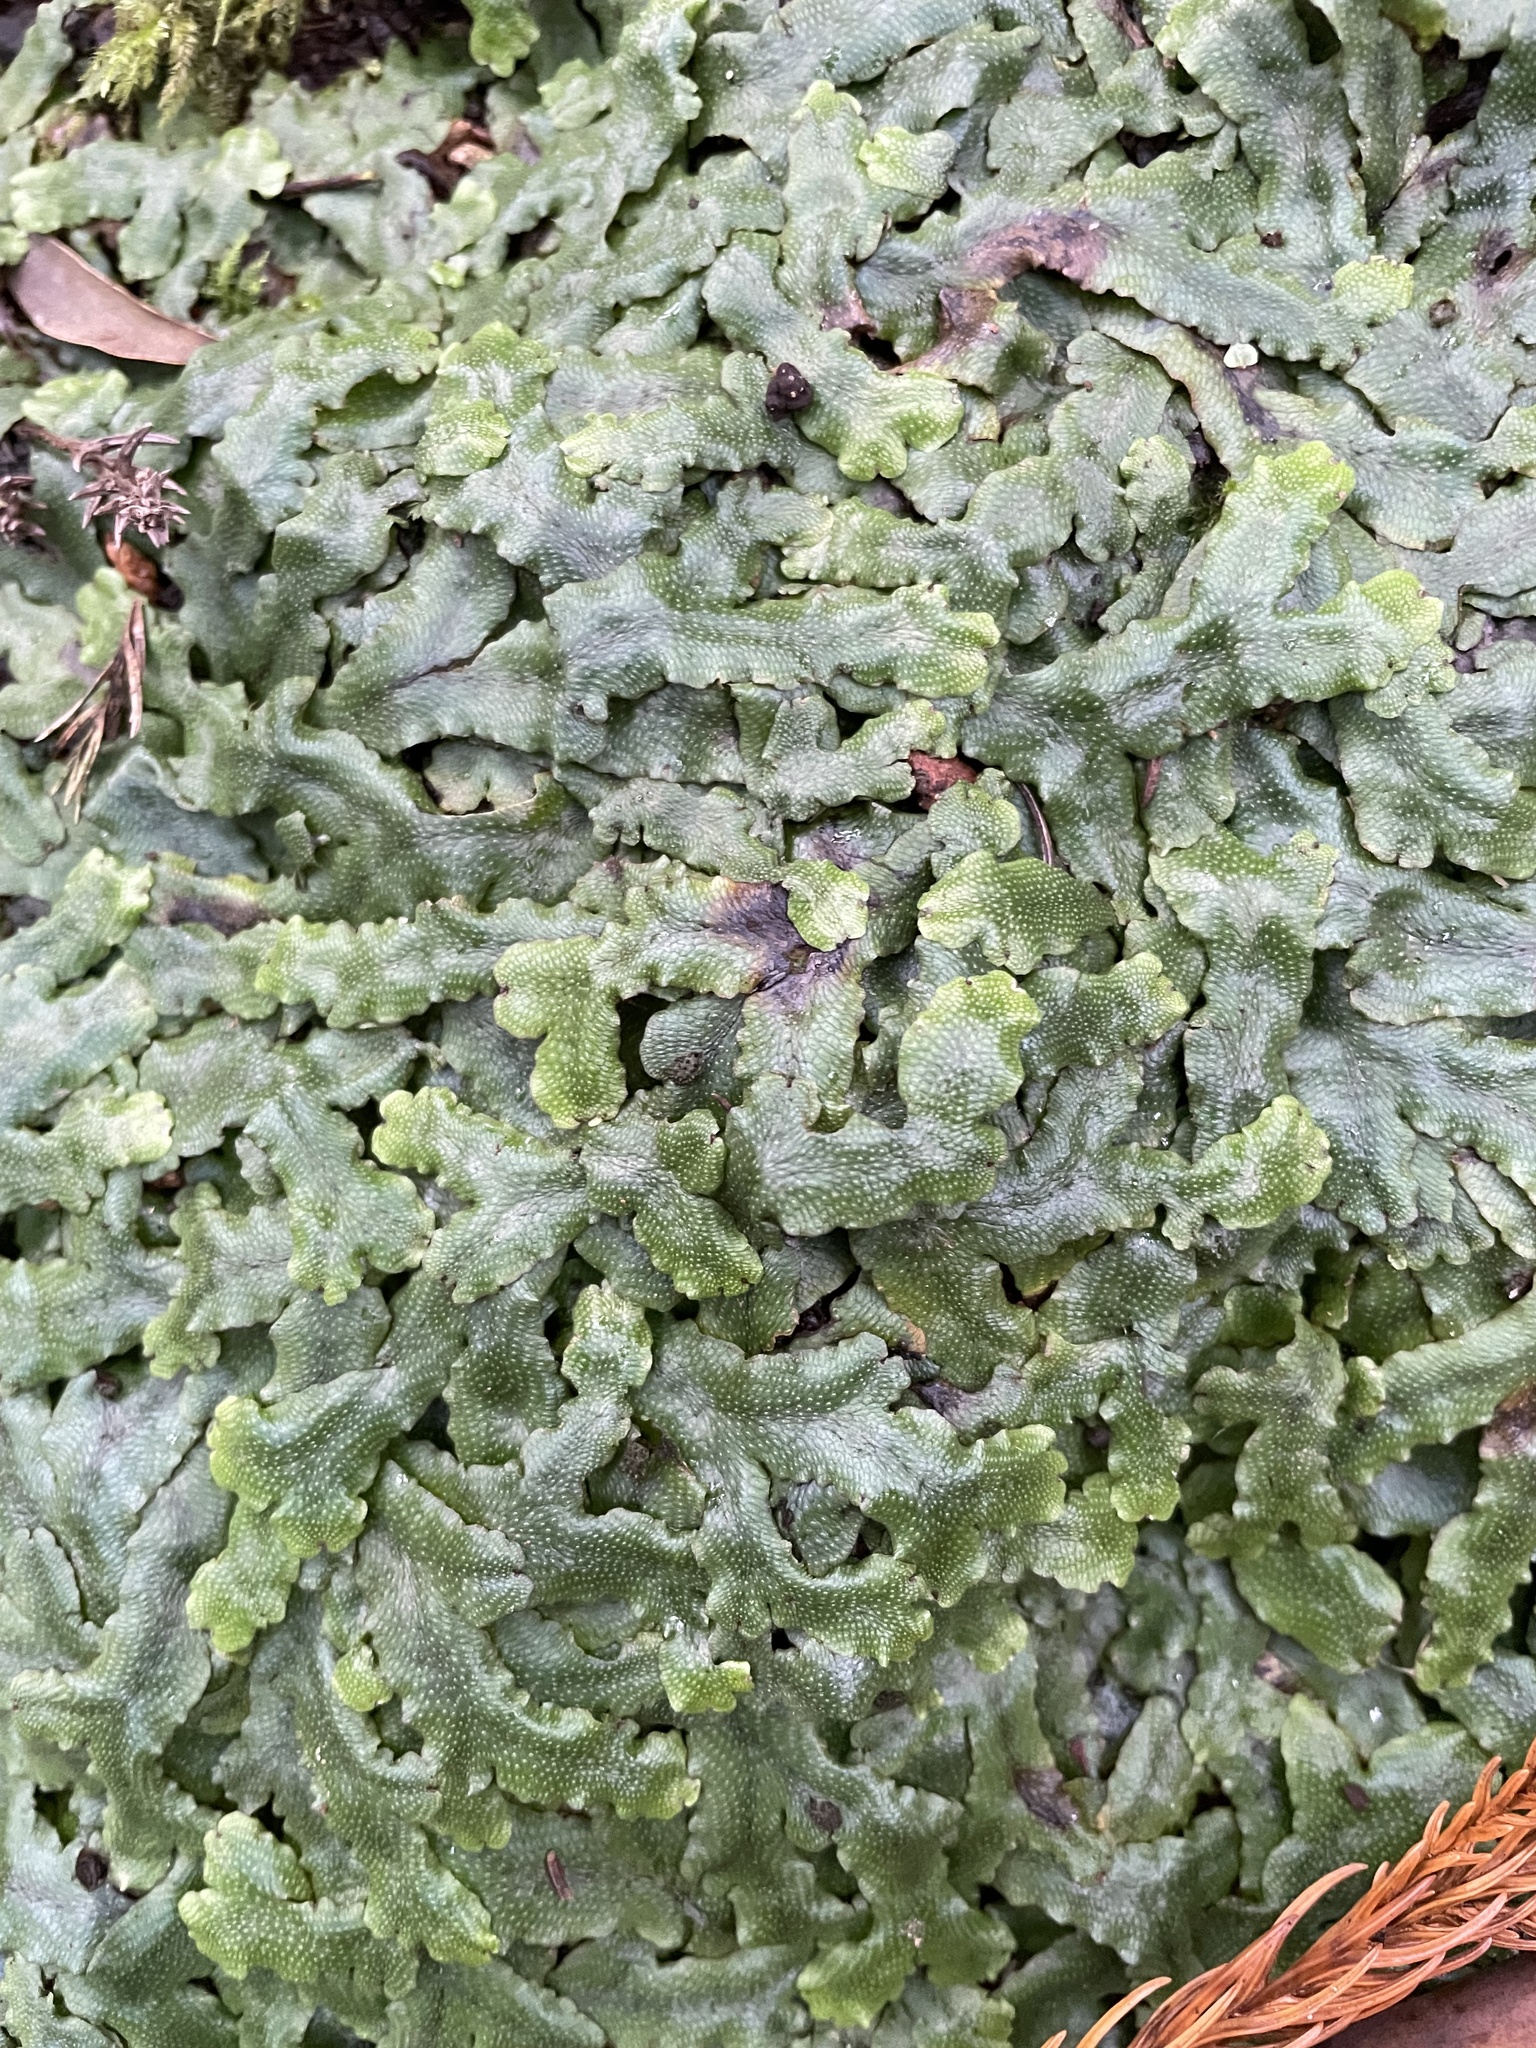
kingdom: Plantae
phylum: Marchantiophyta
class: Marchantiopsida
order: Marchantiales
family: Conocephalaceae
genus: Conocephalum
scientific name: Conocephalum conicum
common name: Great scented liverwort
